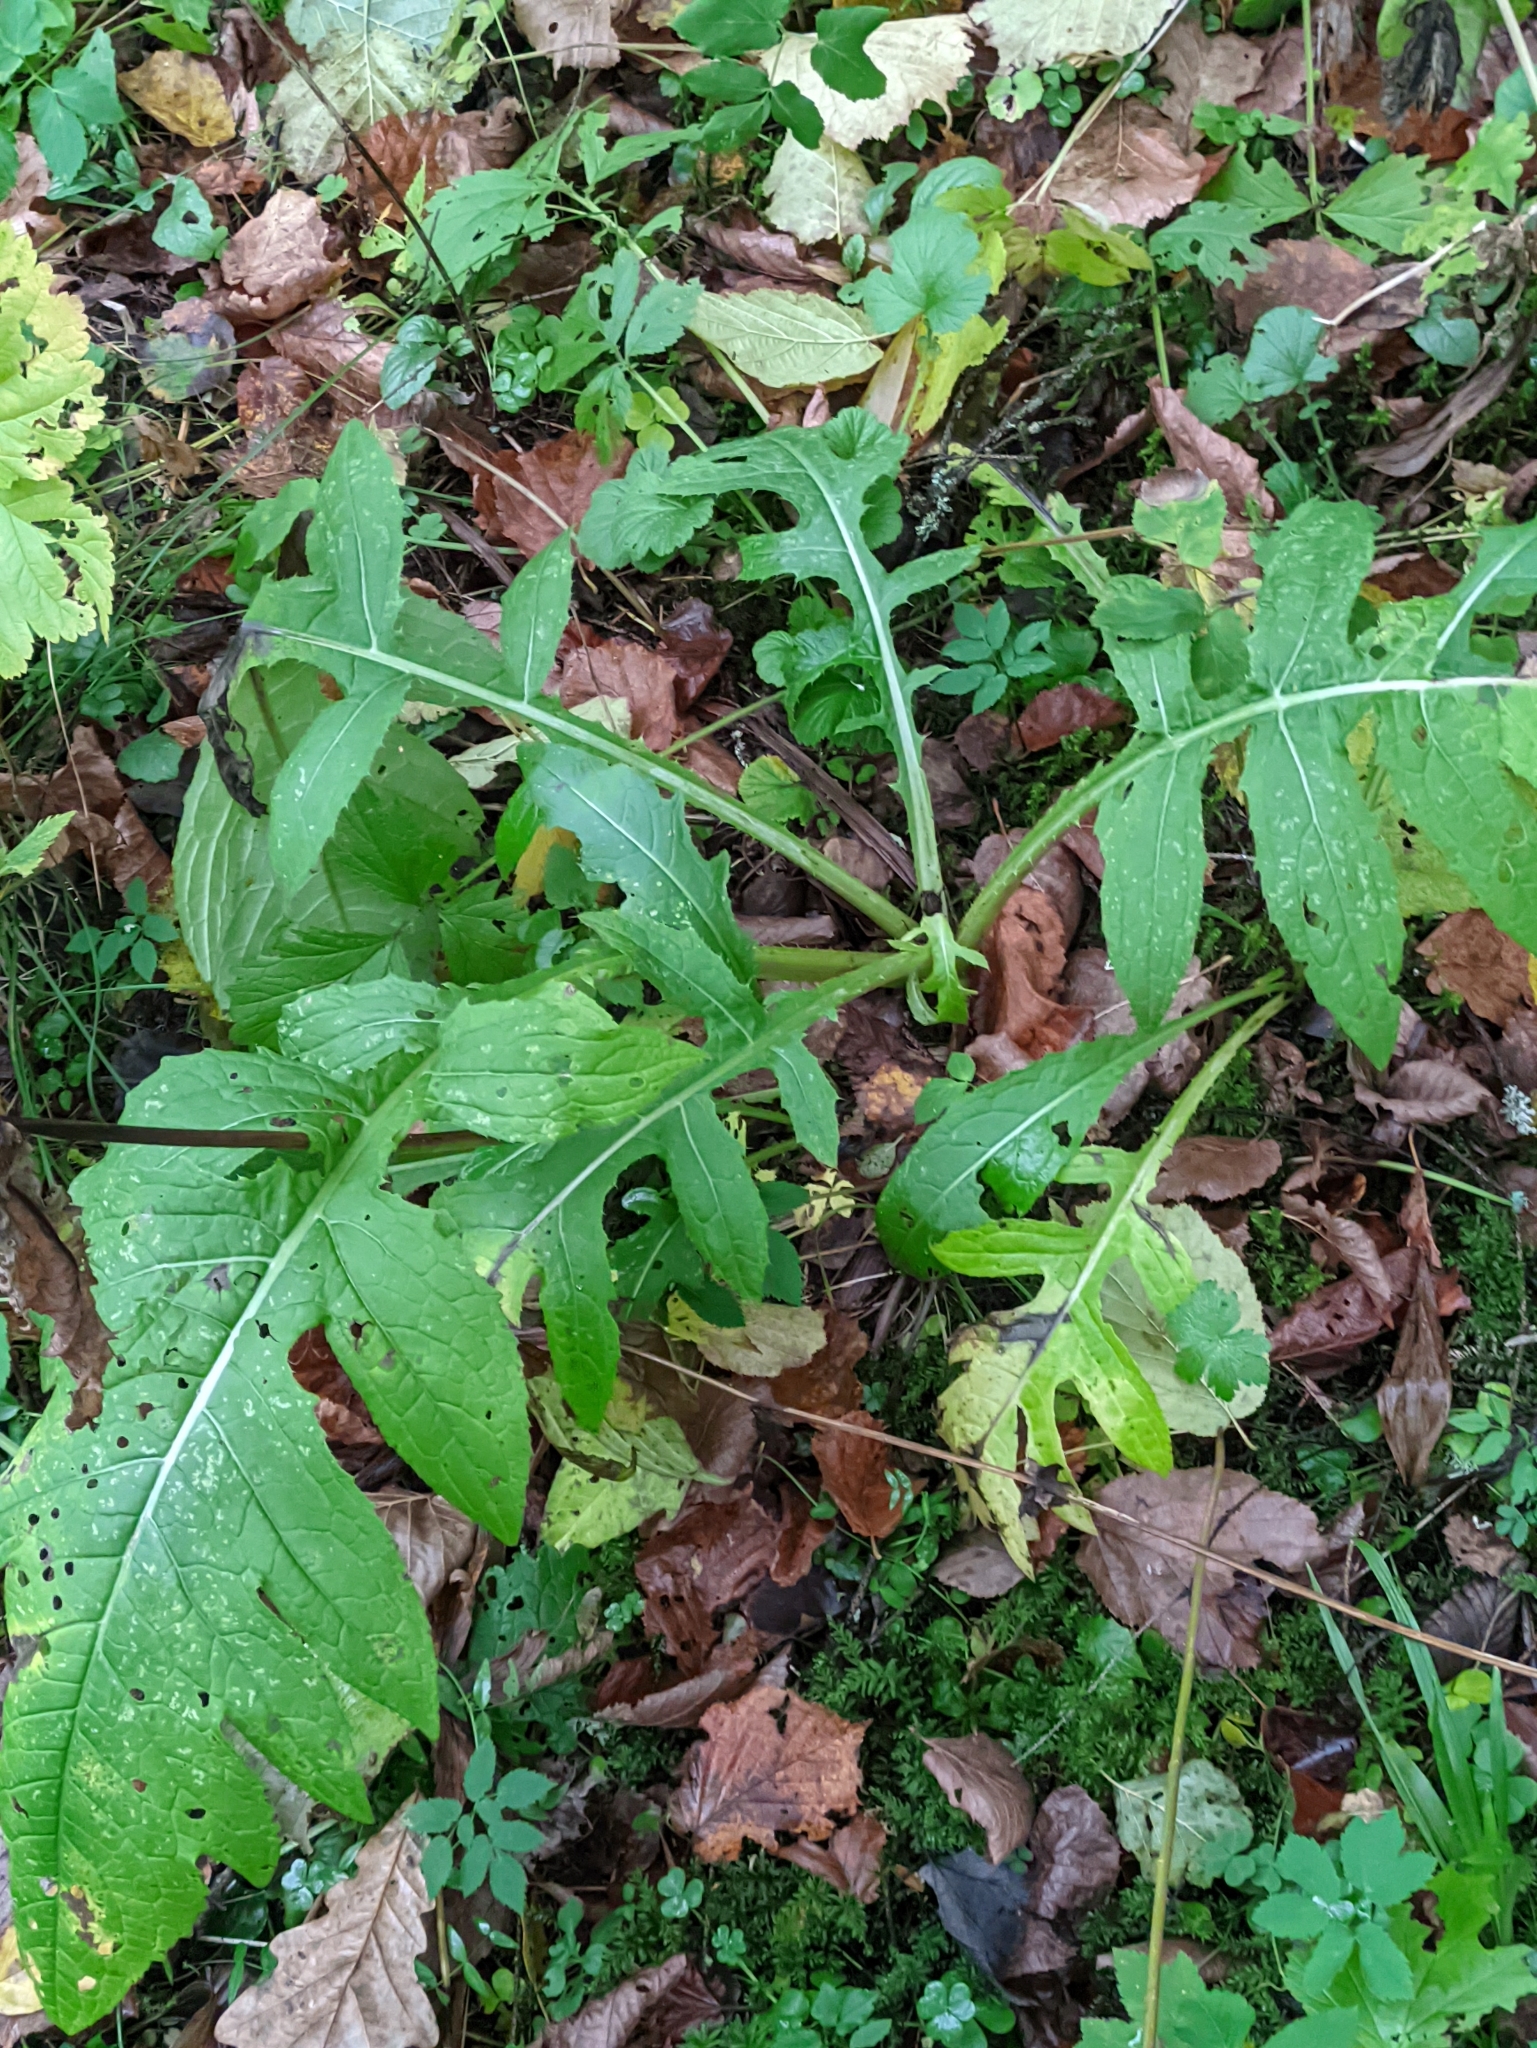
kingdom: Plantae
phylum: Tracheophyta
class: Magnoliopsida
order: Asterales
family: Asteraceae
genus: Cirsium
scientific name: Cirsium oleraceum
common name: Cabbage thistle
